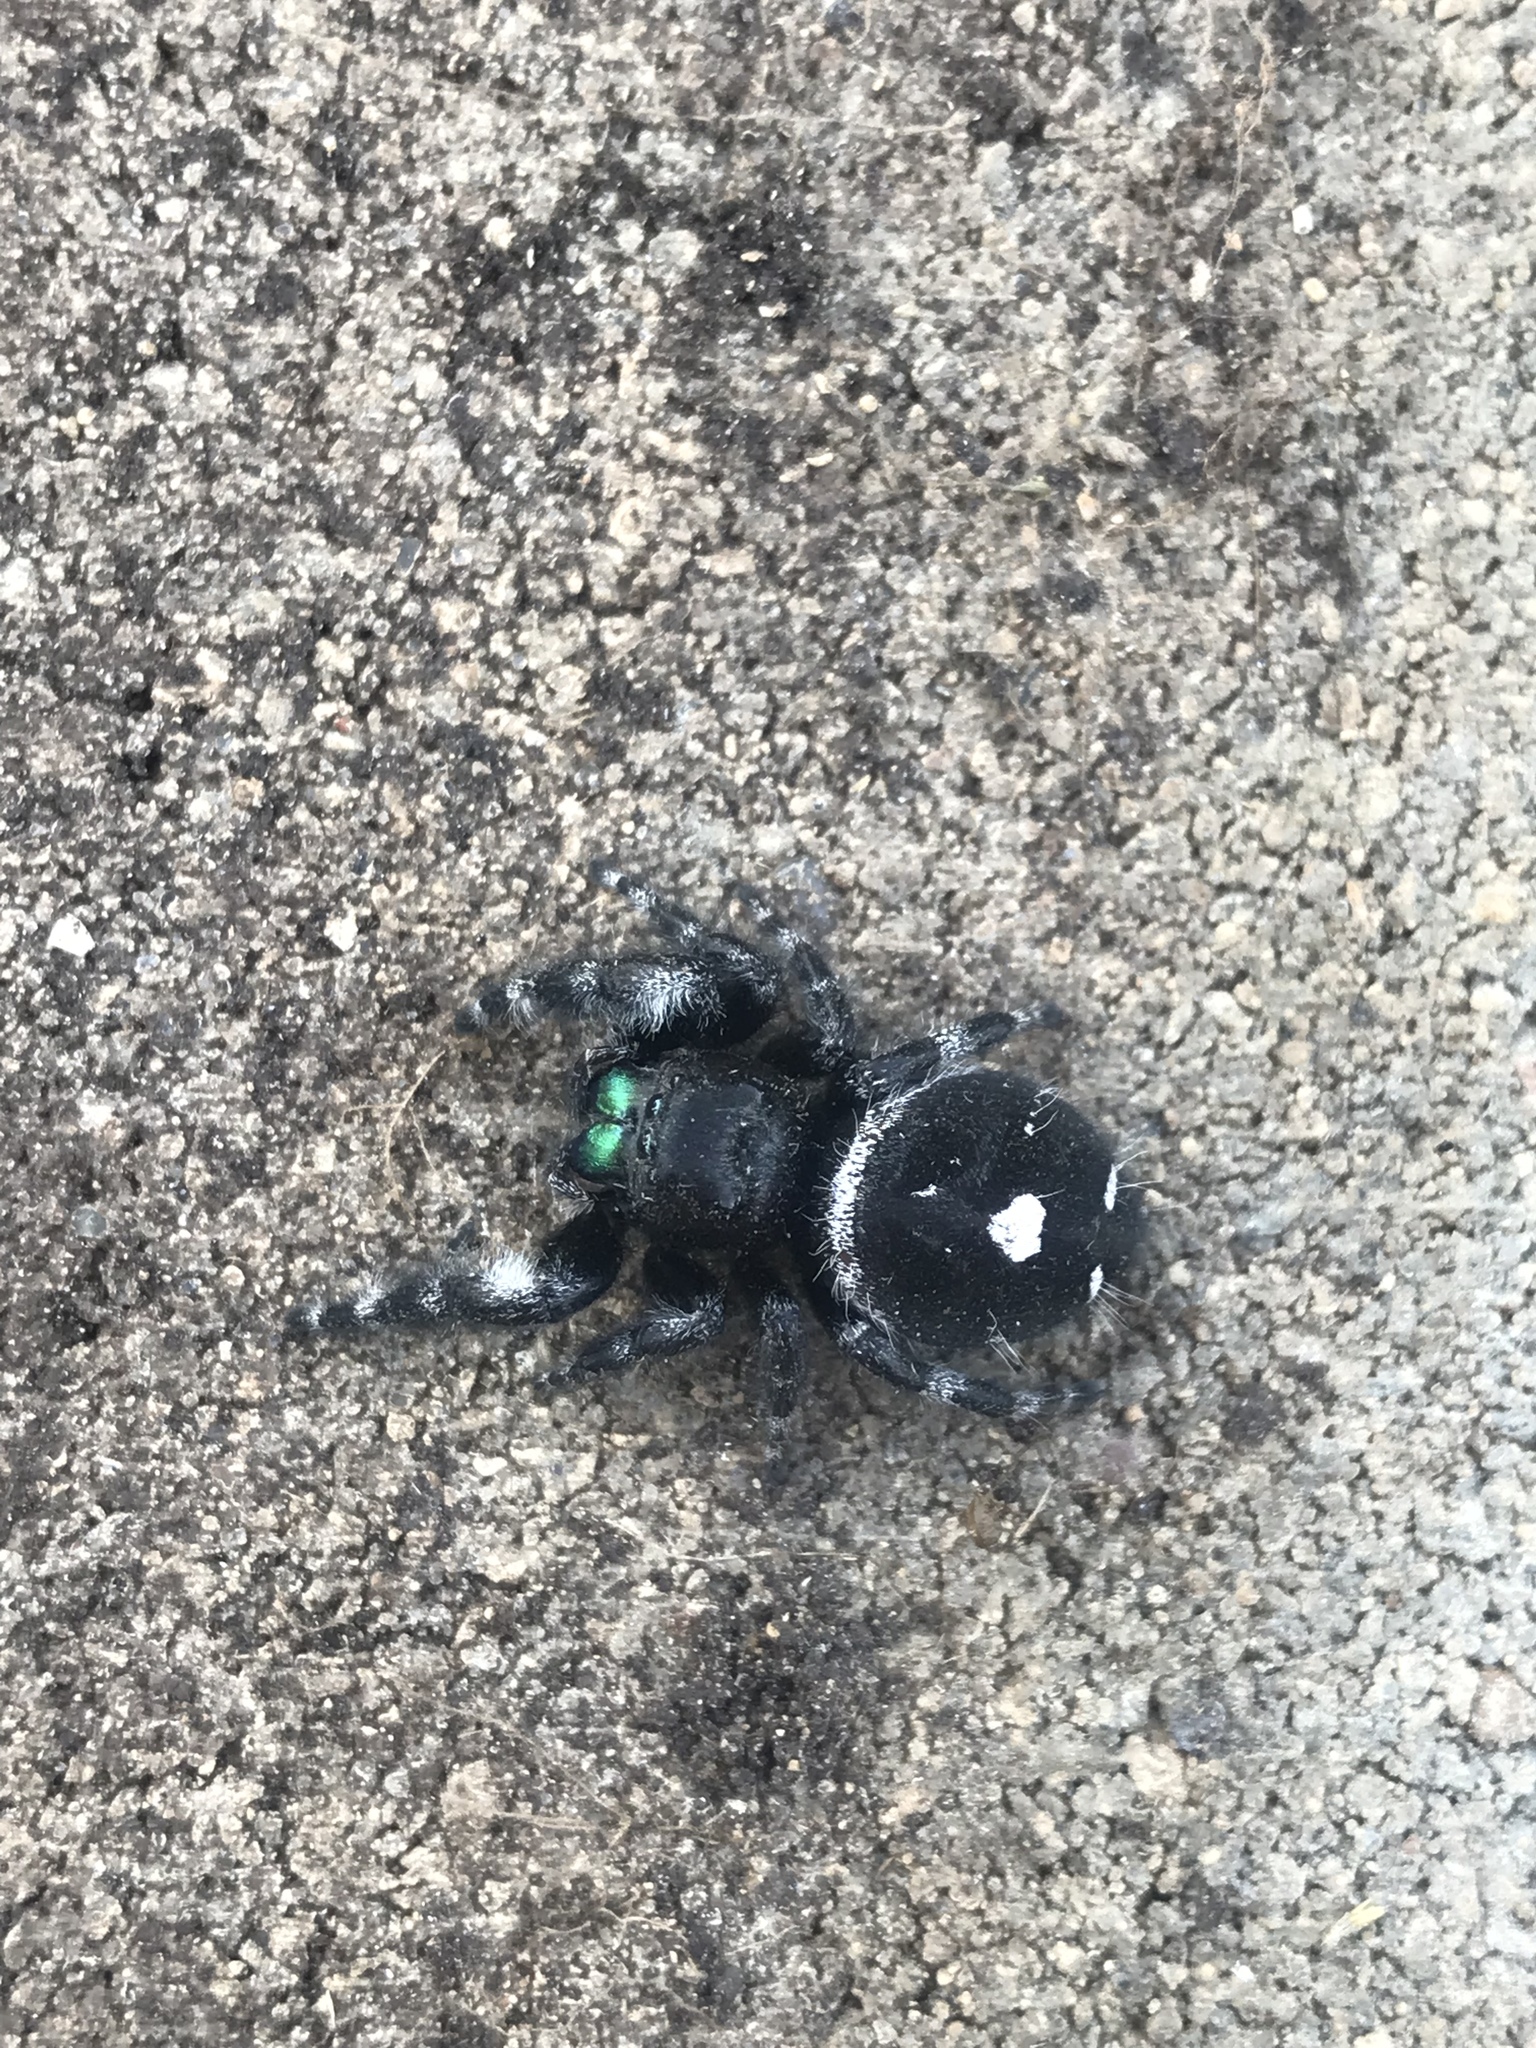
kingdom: Animalia
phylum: Arthropoda
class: Arachnida
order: Araneae
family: Salticidae
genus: Phidippus
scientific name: Phidippus audax
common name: Bold jumper
